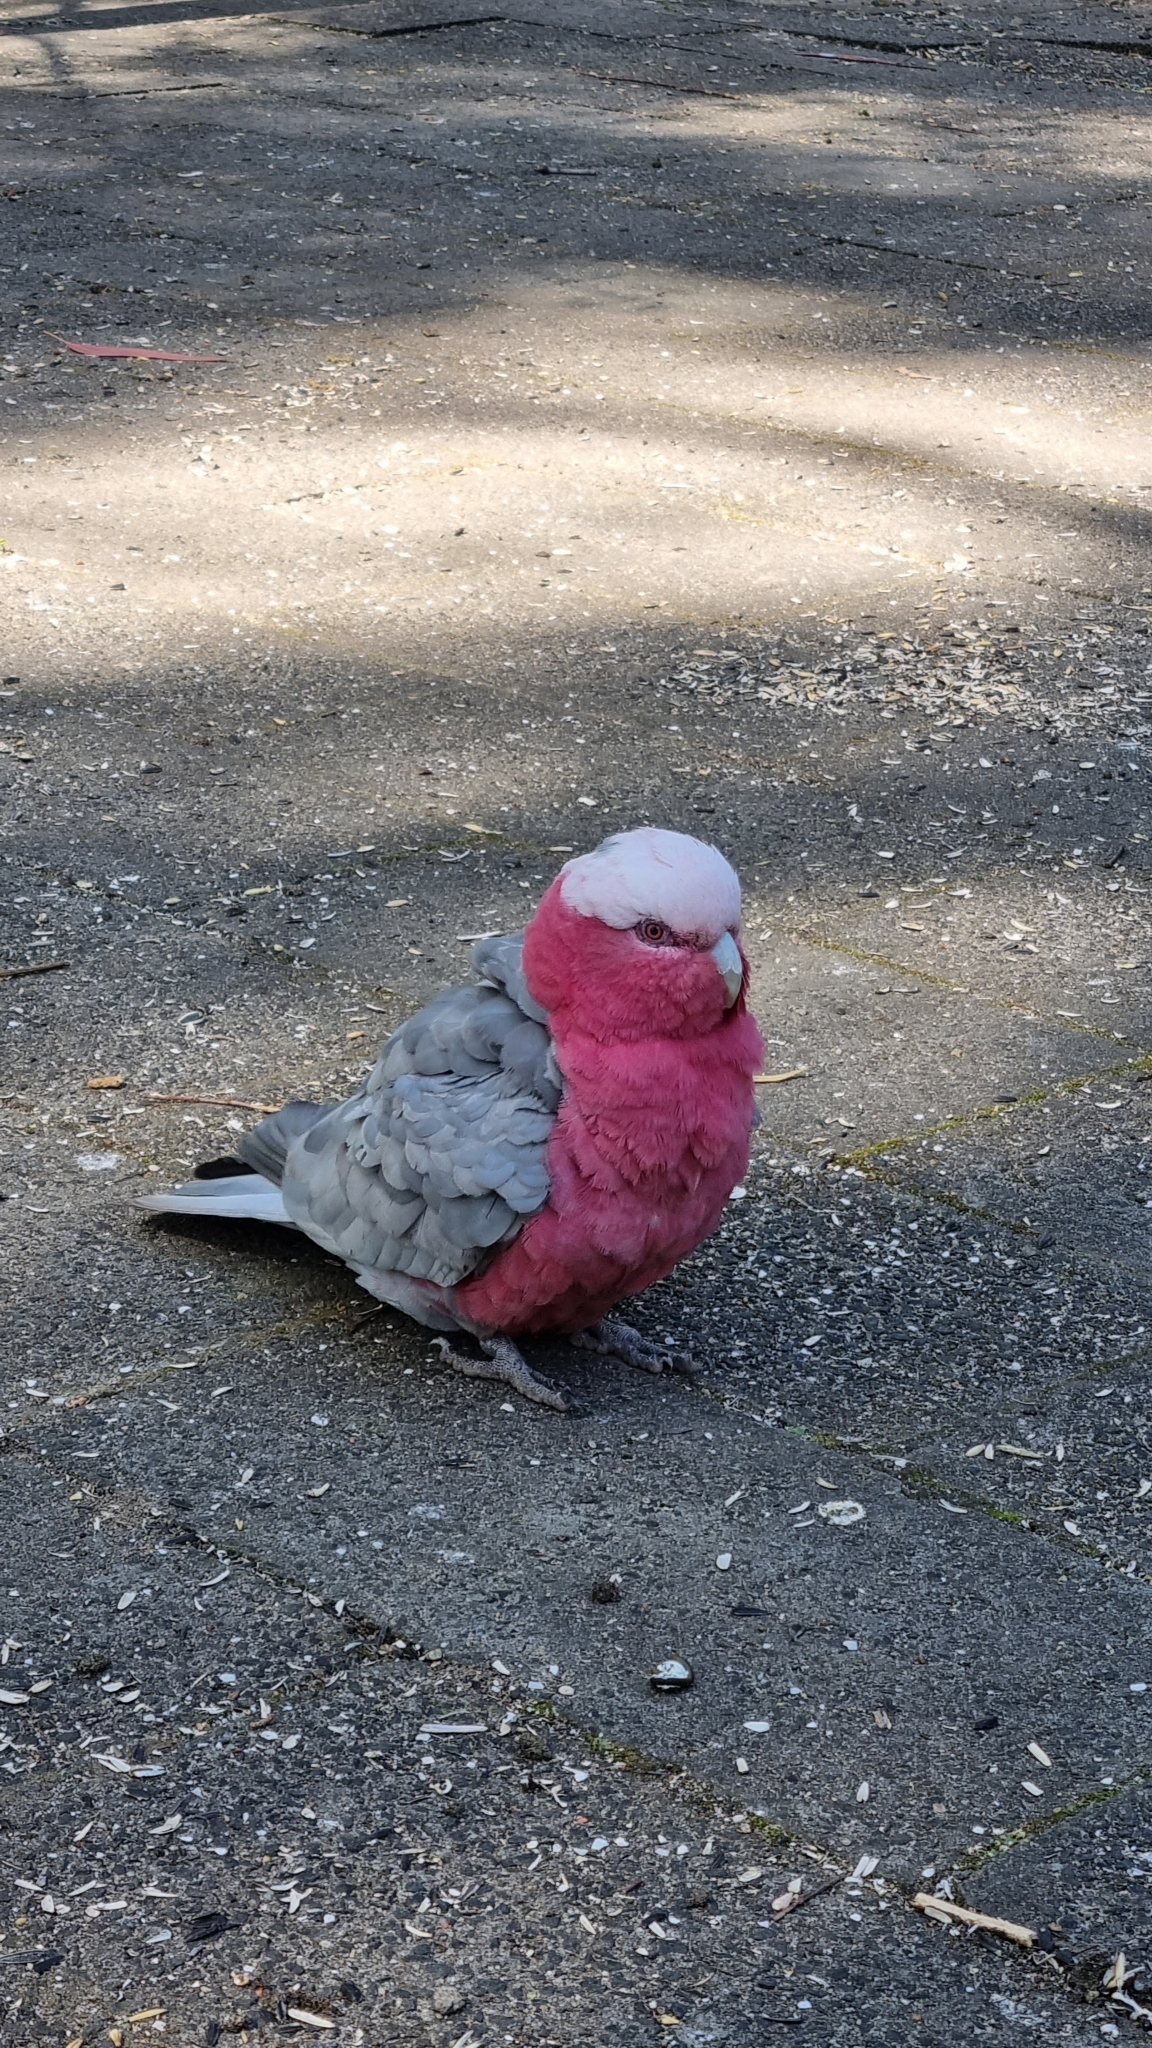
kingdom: Animalia
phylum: Chordata
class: Aves
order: Psittaciformes
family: Psittacidae
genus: Eolophus
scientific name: Eolophus roseicapilla
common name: Galah
